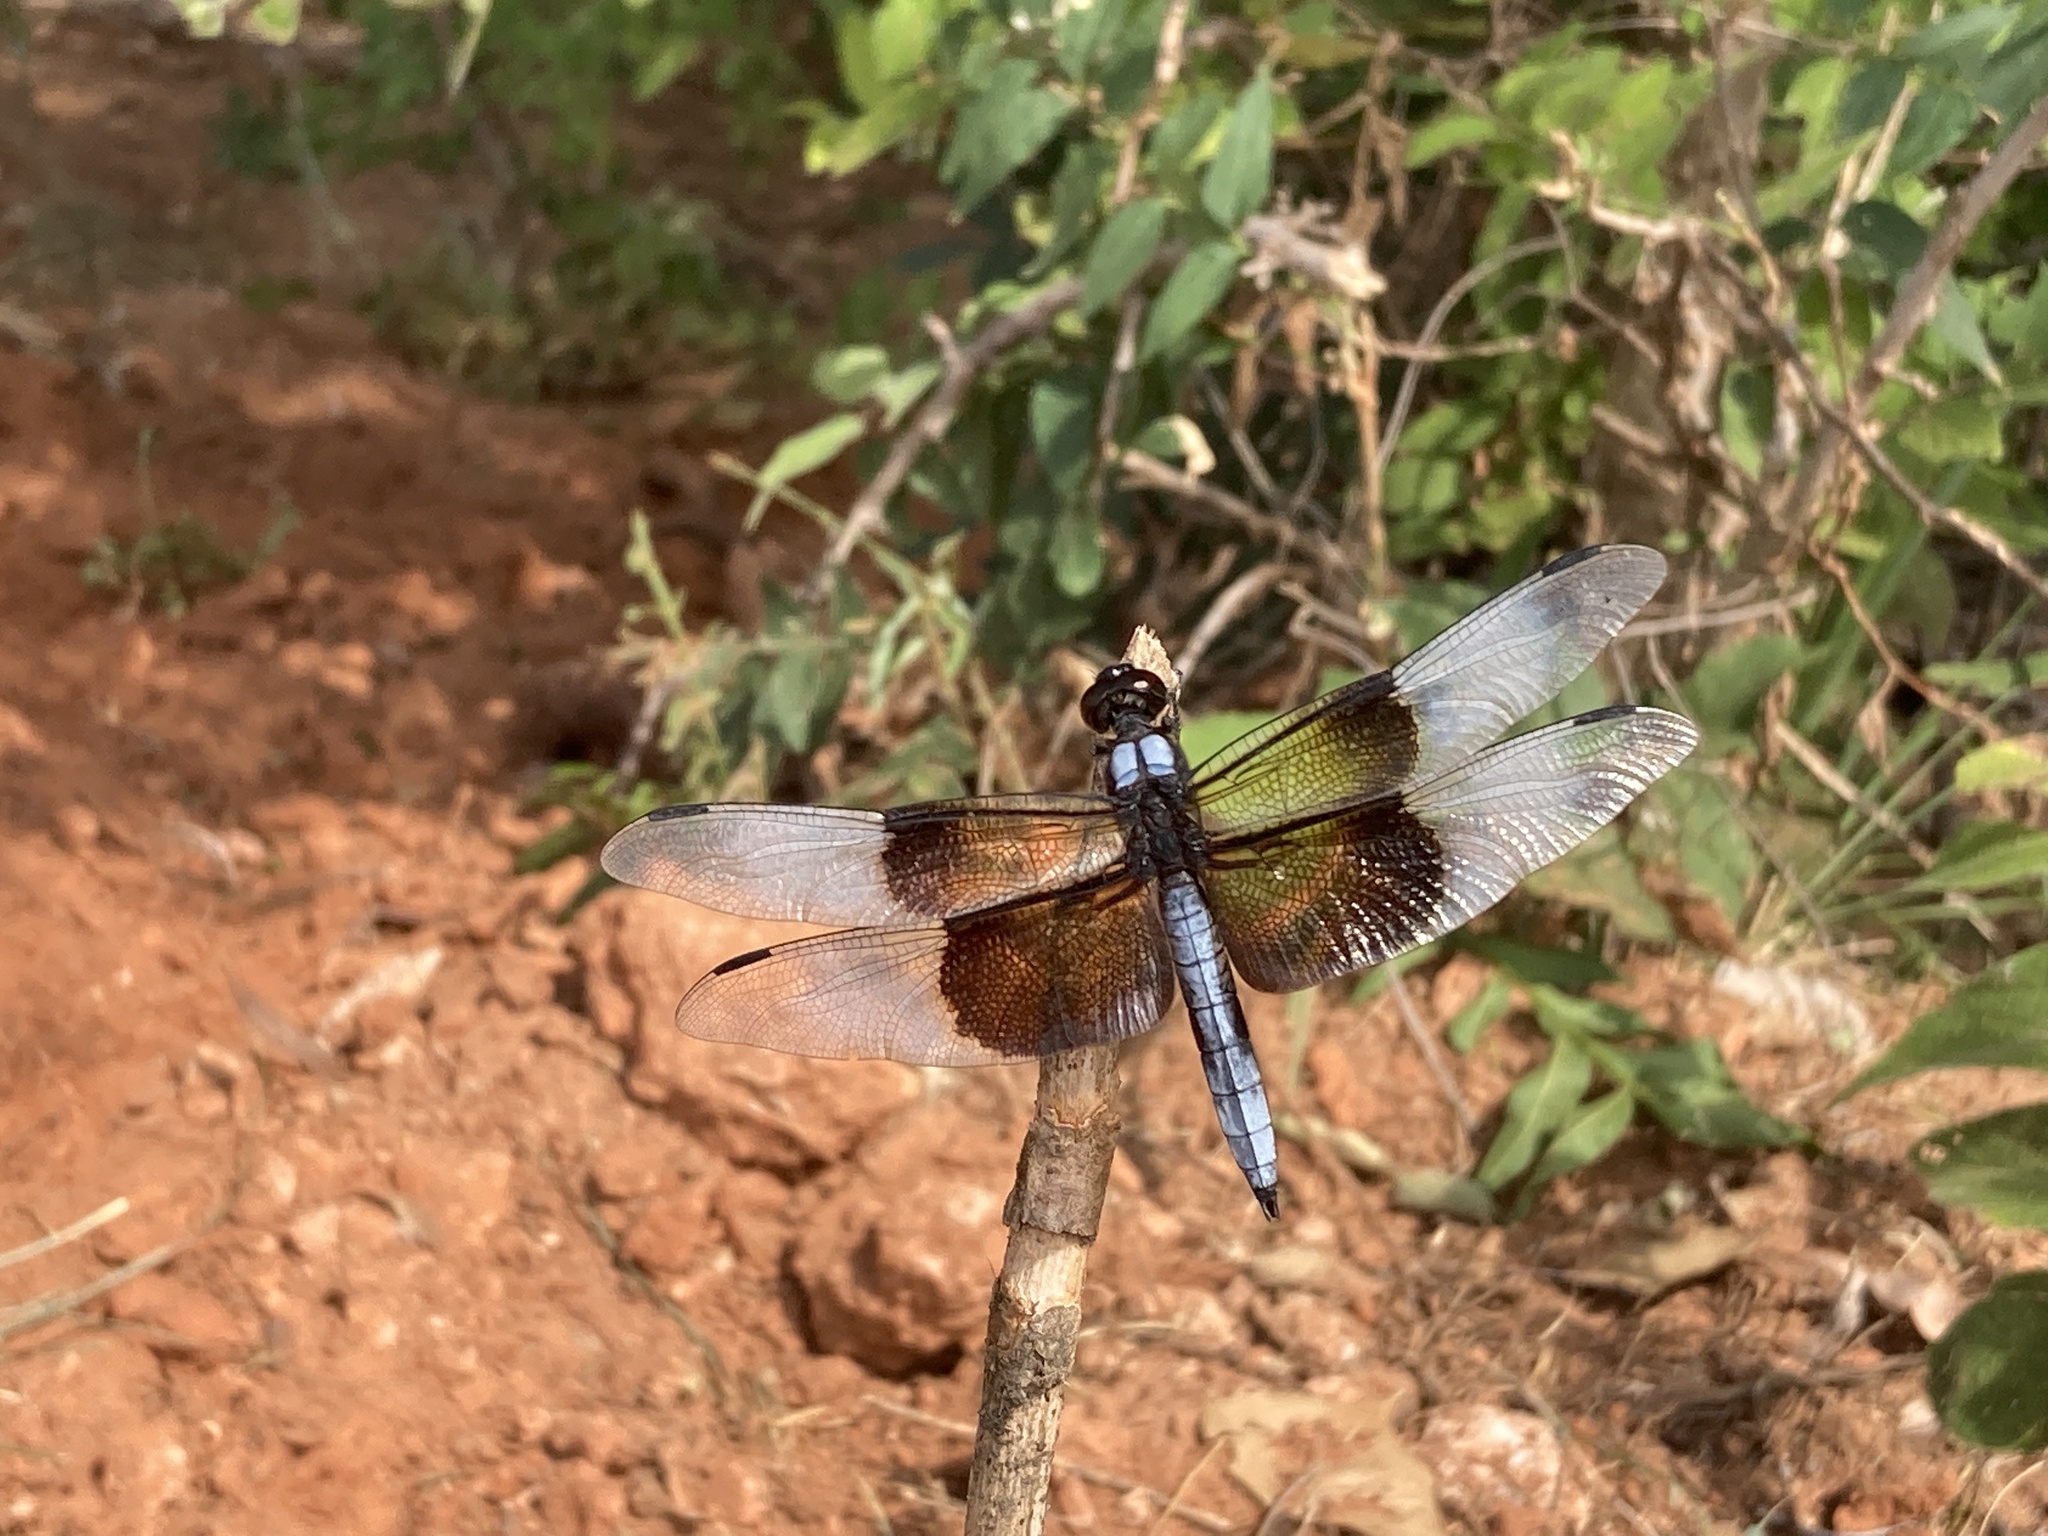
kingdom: Animalia
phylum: Arthropoda
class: Insecta
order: Odonata
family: Libellulidae
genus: Libellula
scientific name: Libellula luctuosa
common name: Widow skimmer
